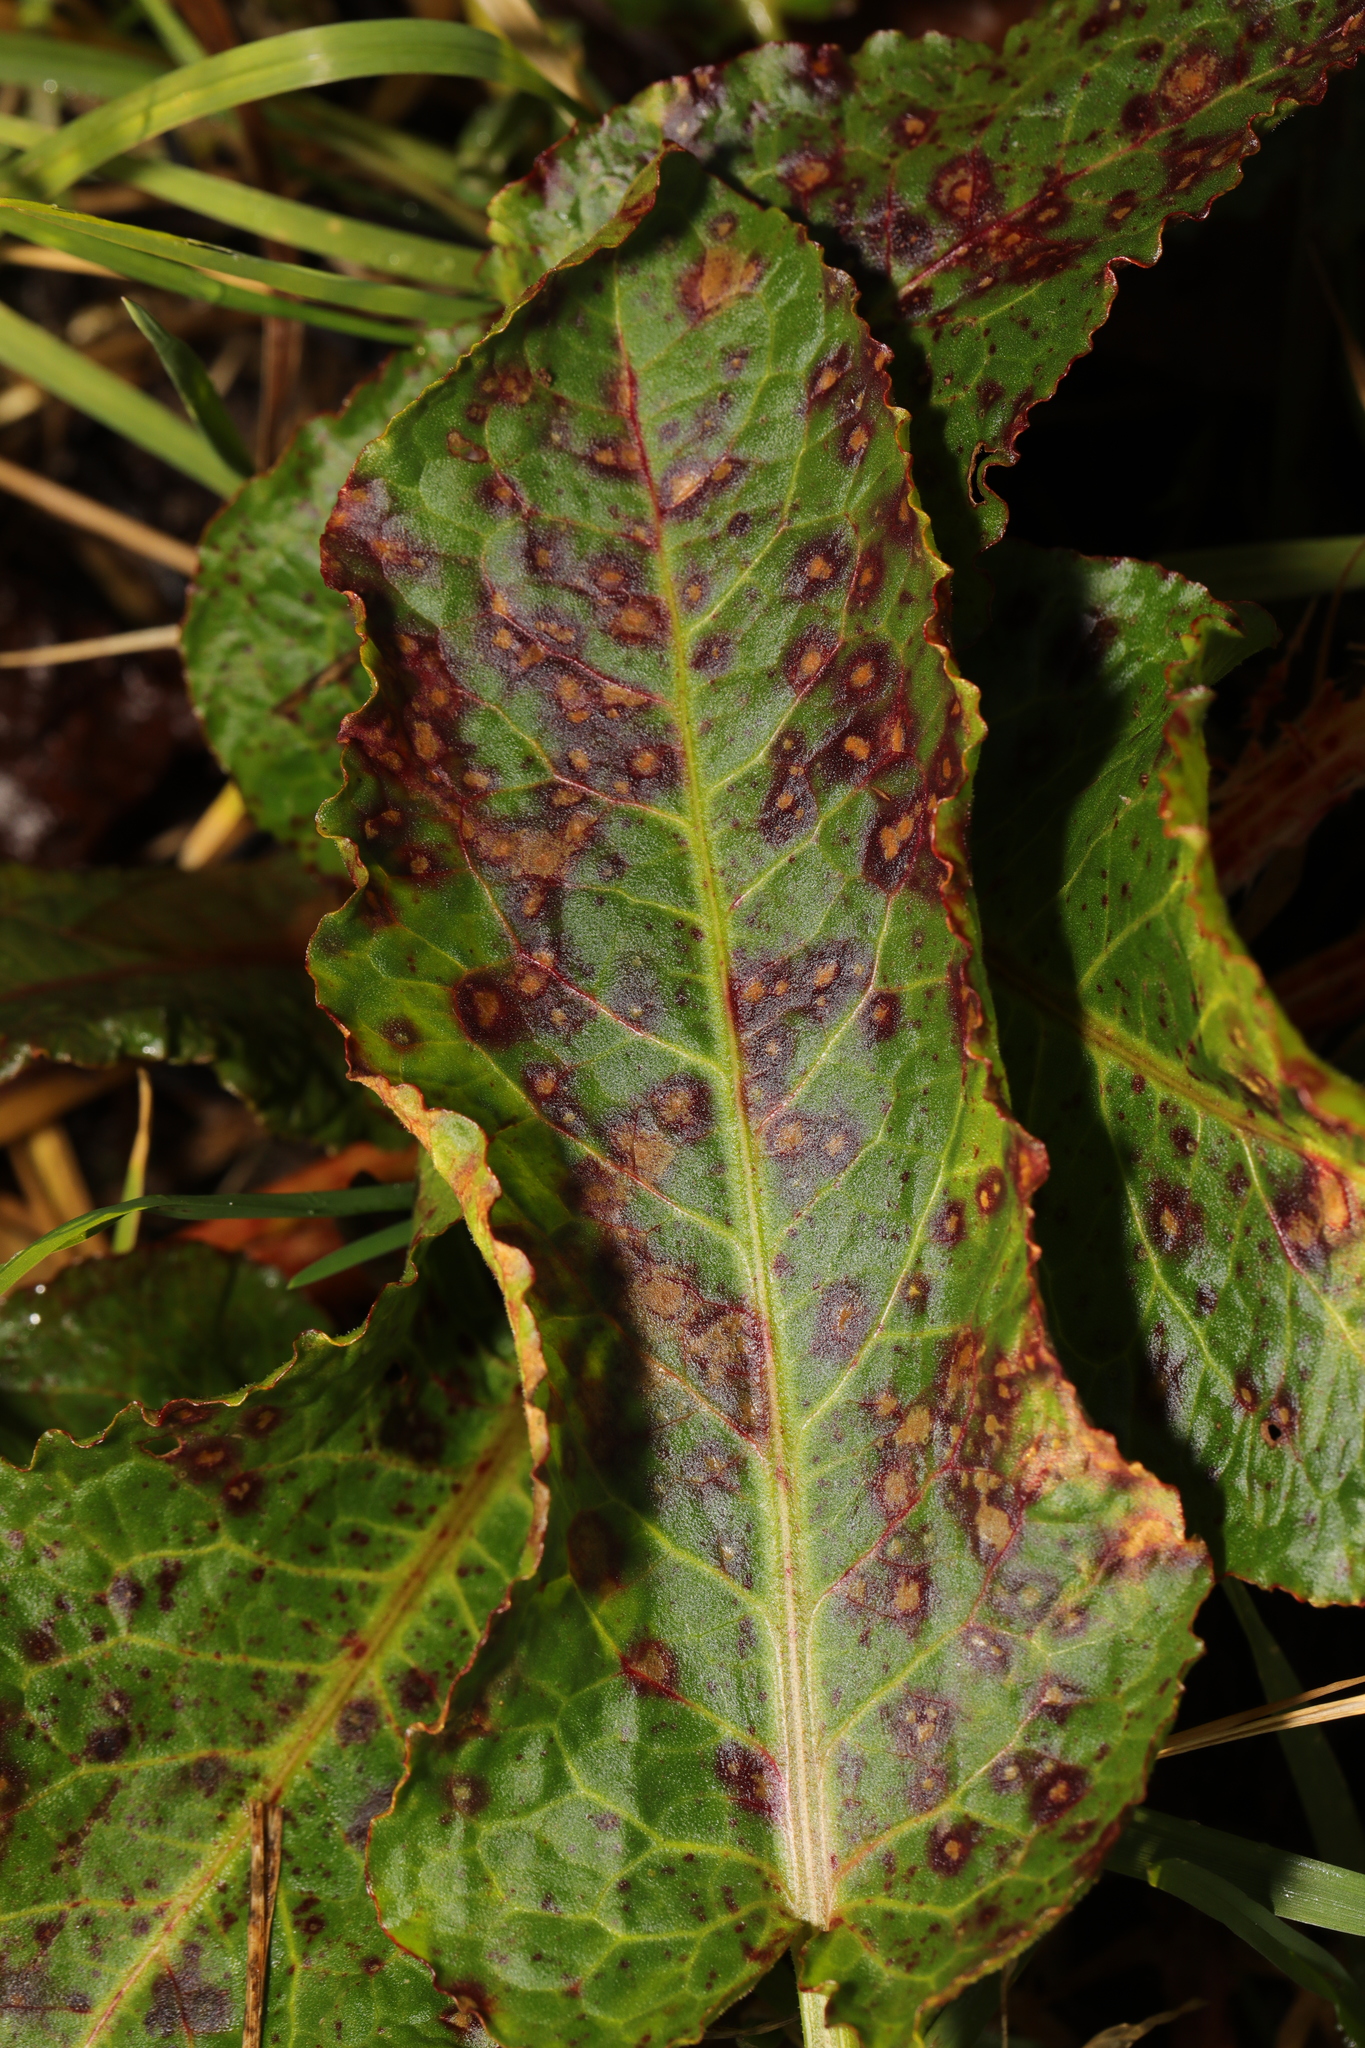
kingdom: Fungi
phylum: Ascomycota
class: Dothideomycetes
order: Mycosphaerellales
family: Mycosphaerellaceae
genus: Ramularia
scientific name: Ramularia rubella
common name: Red dock spot
